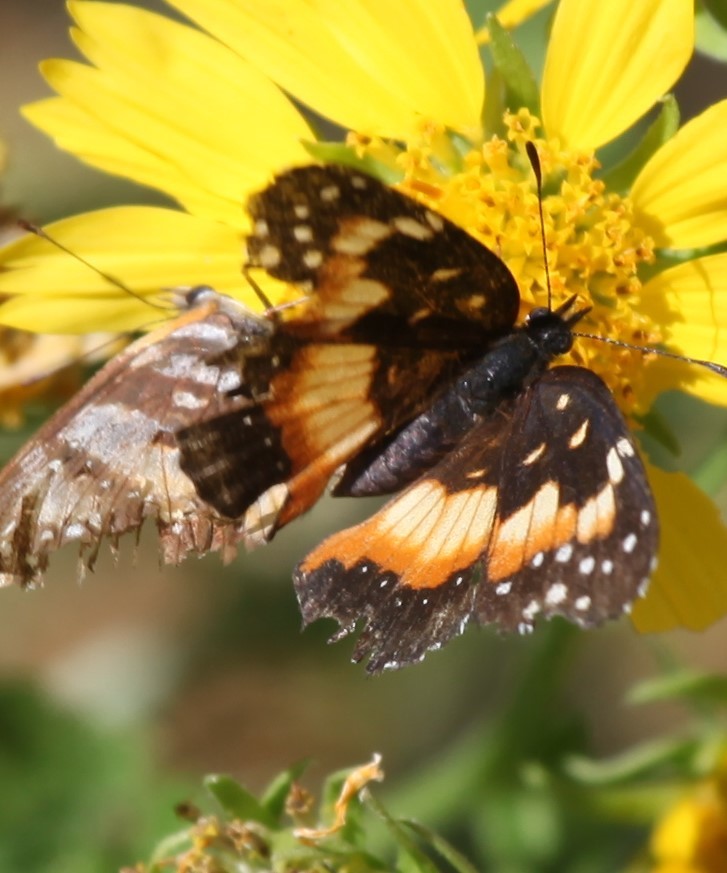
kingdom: Animalia
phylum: Arthropoda
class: Insecta
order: Lepidoptera
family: Nymphalidae
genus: Chlosyne
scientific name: Chlosyne lacinia
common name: Bordered patch
